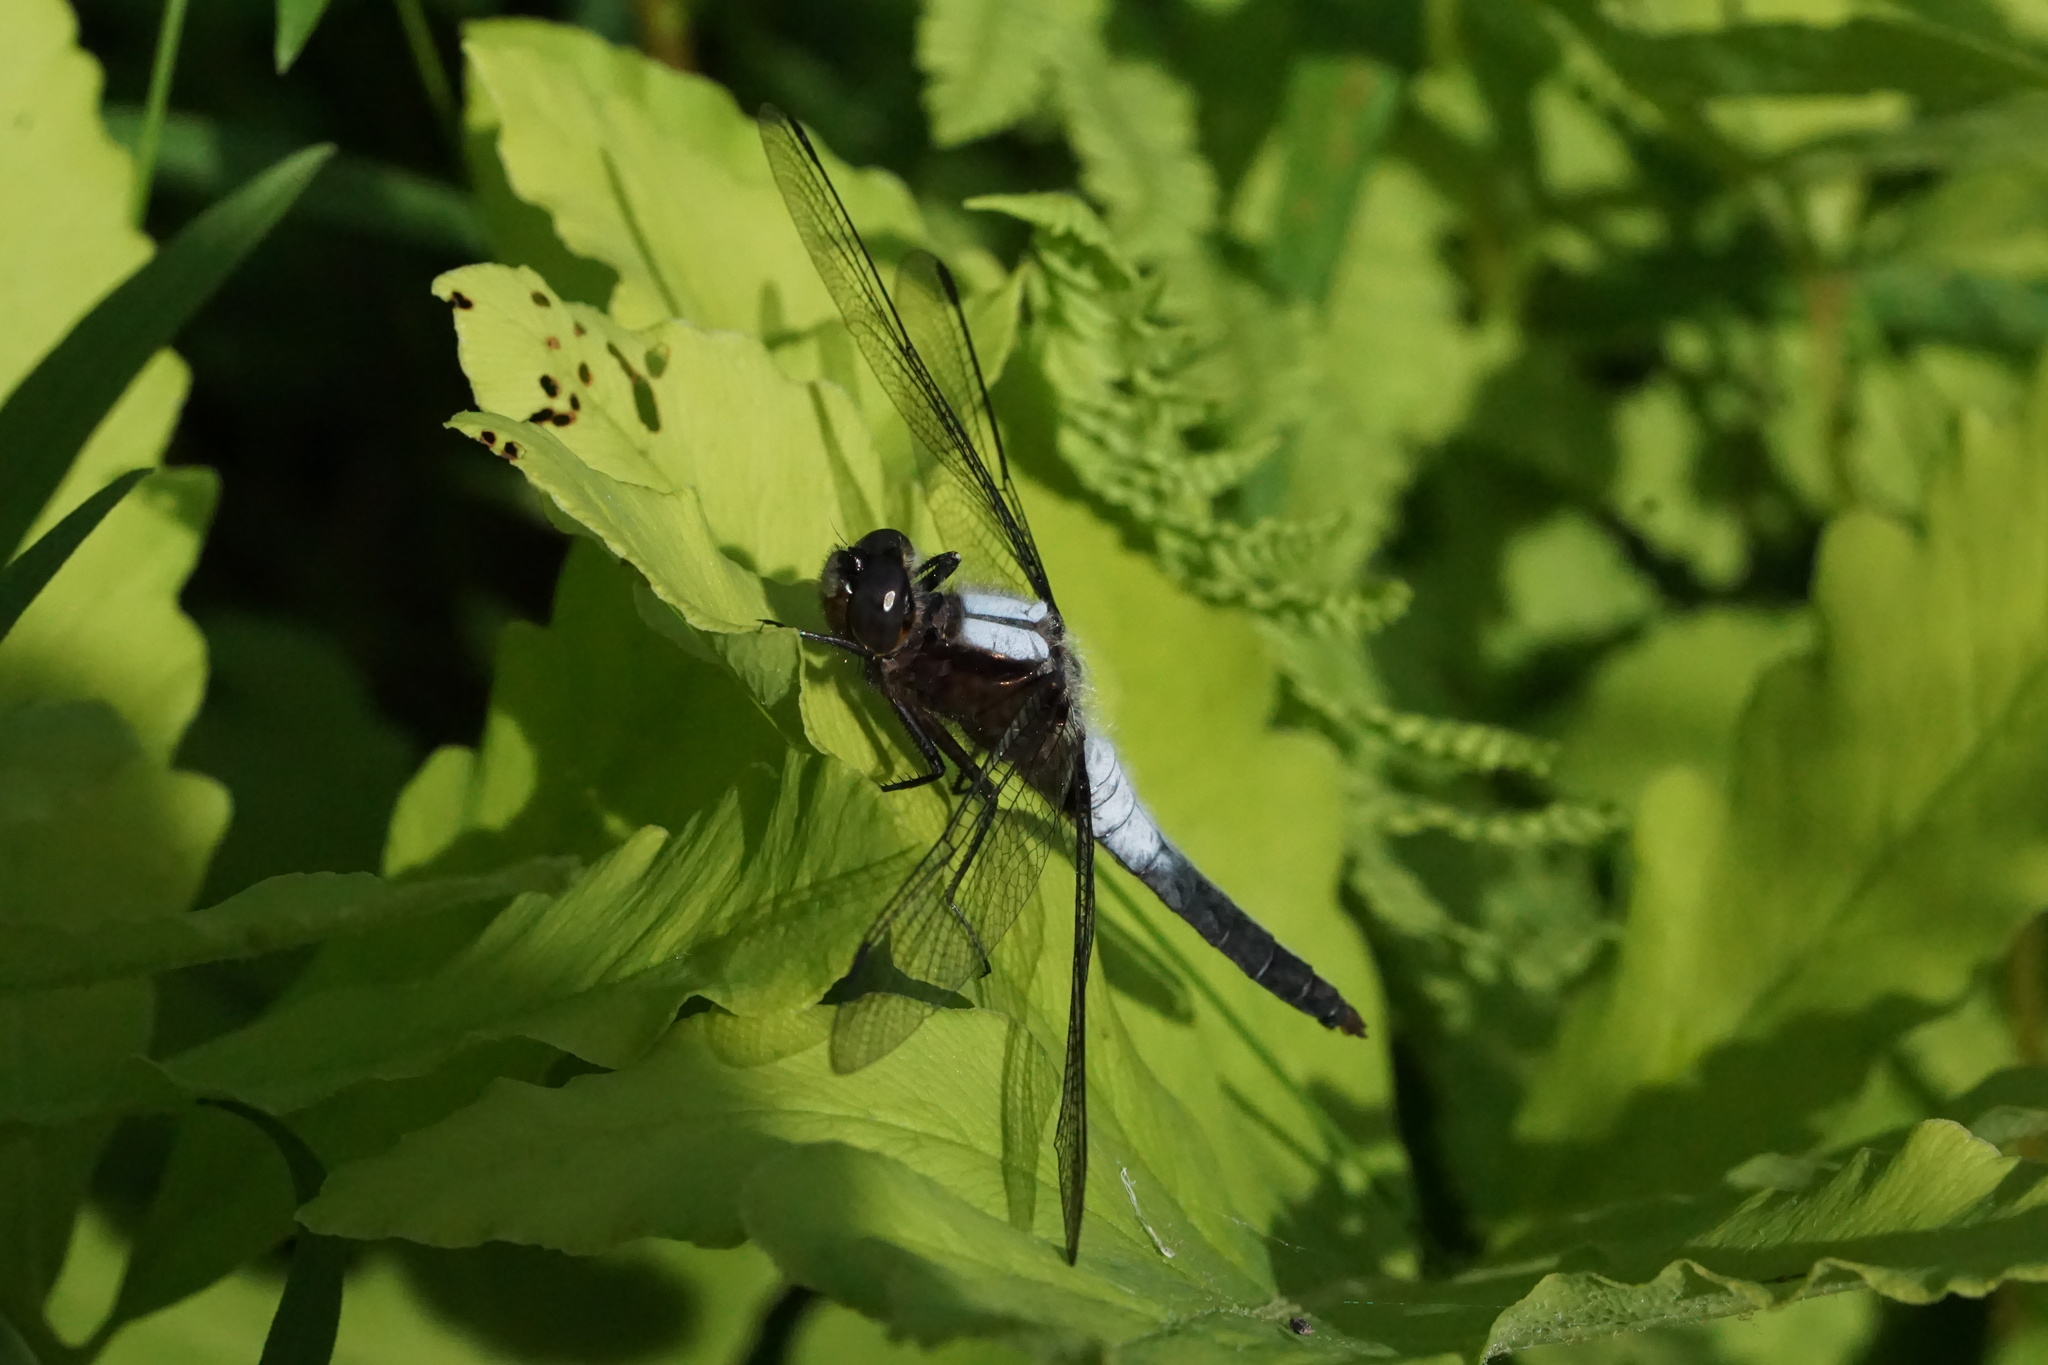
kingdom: Animalia
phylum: Arthropoda
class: Insecta
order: Odonata
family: Libellulidae
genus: Ladona
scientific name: Ladona julia
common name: Chalk-fronted corporal
